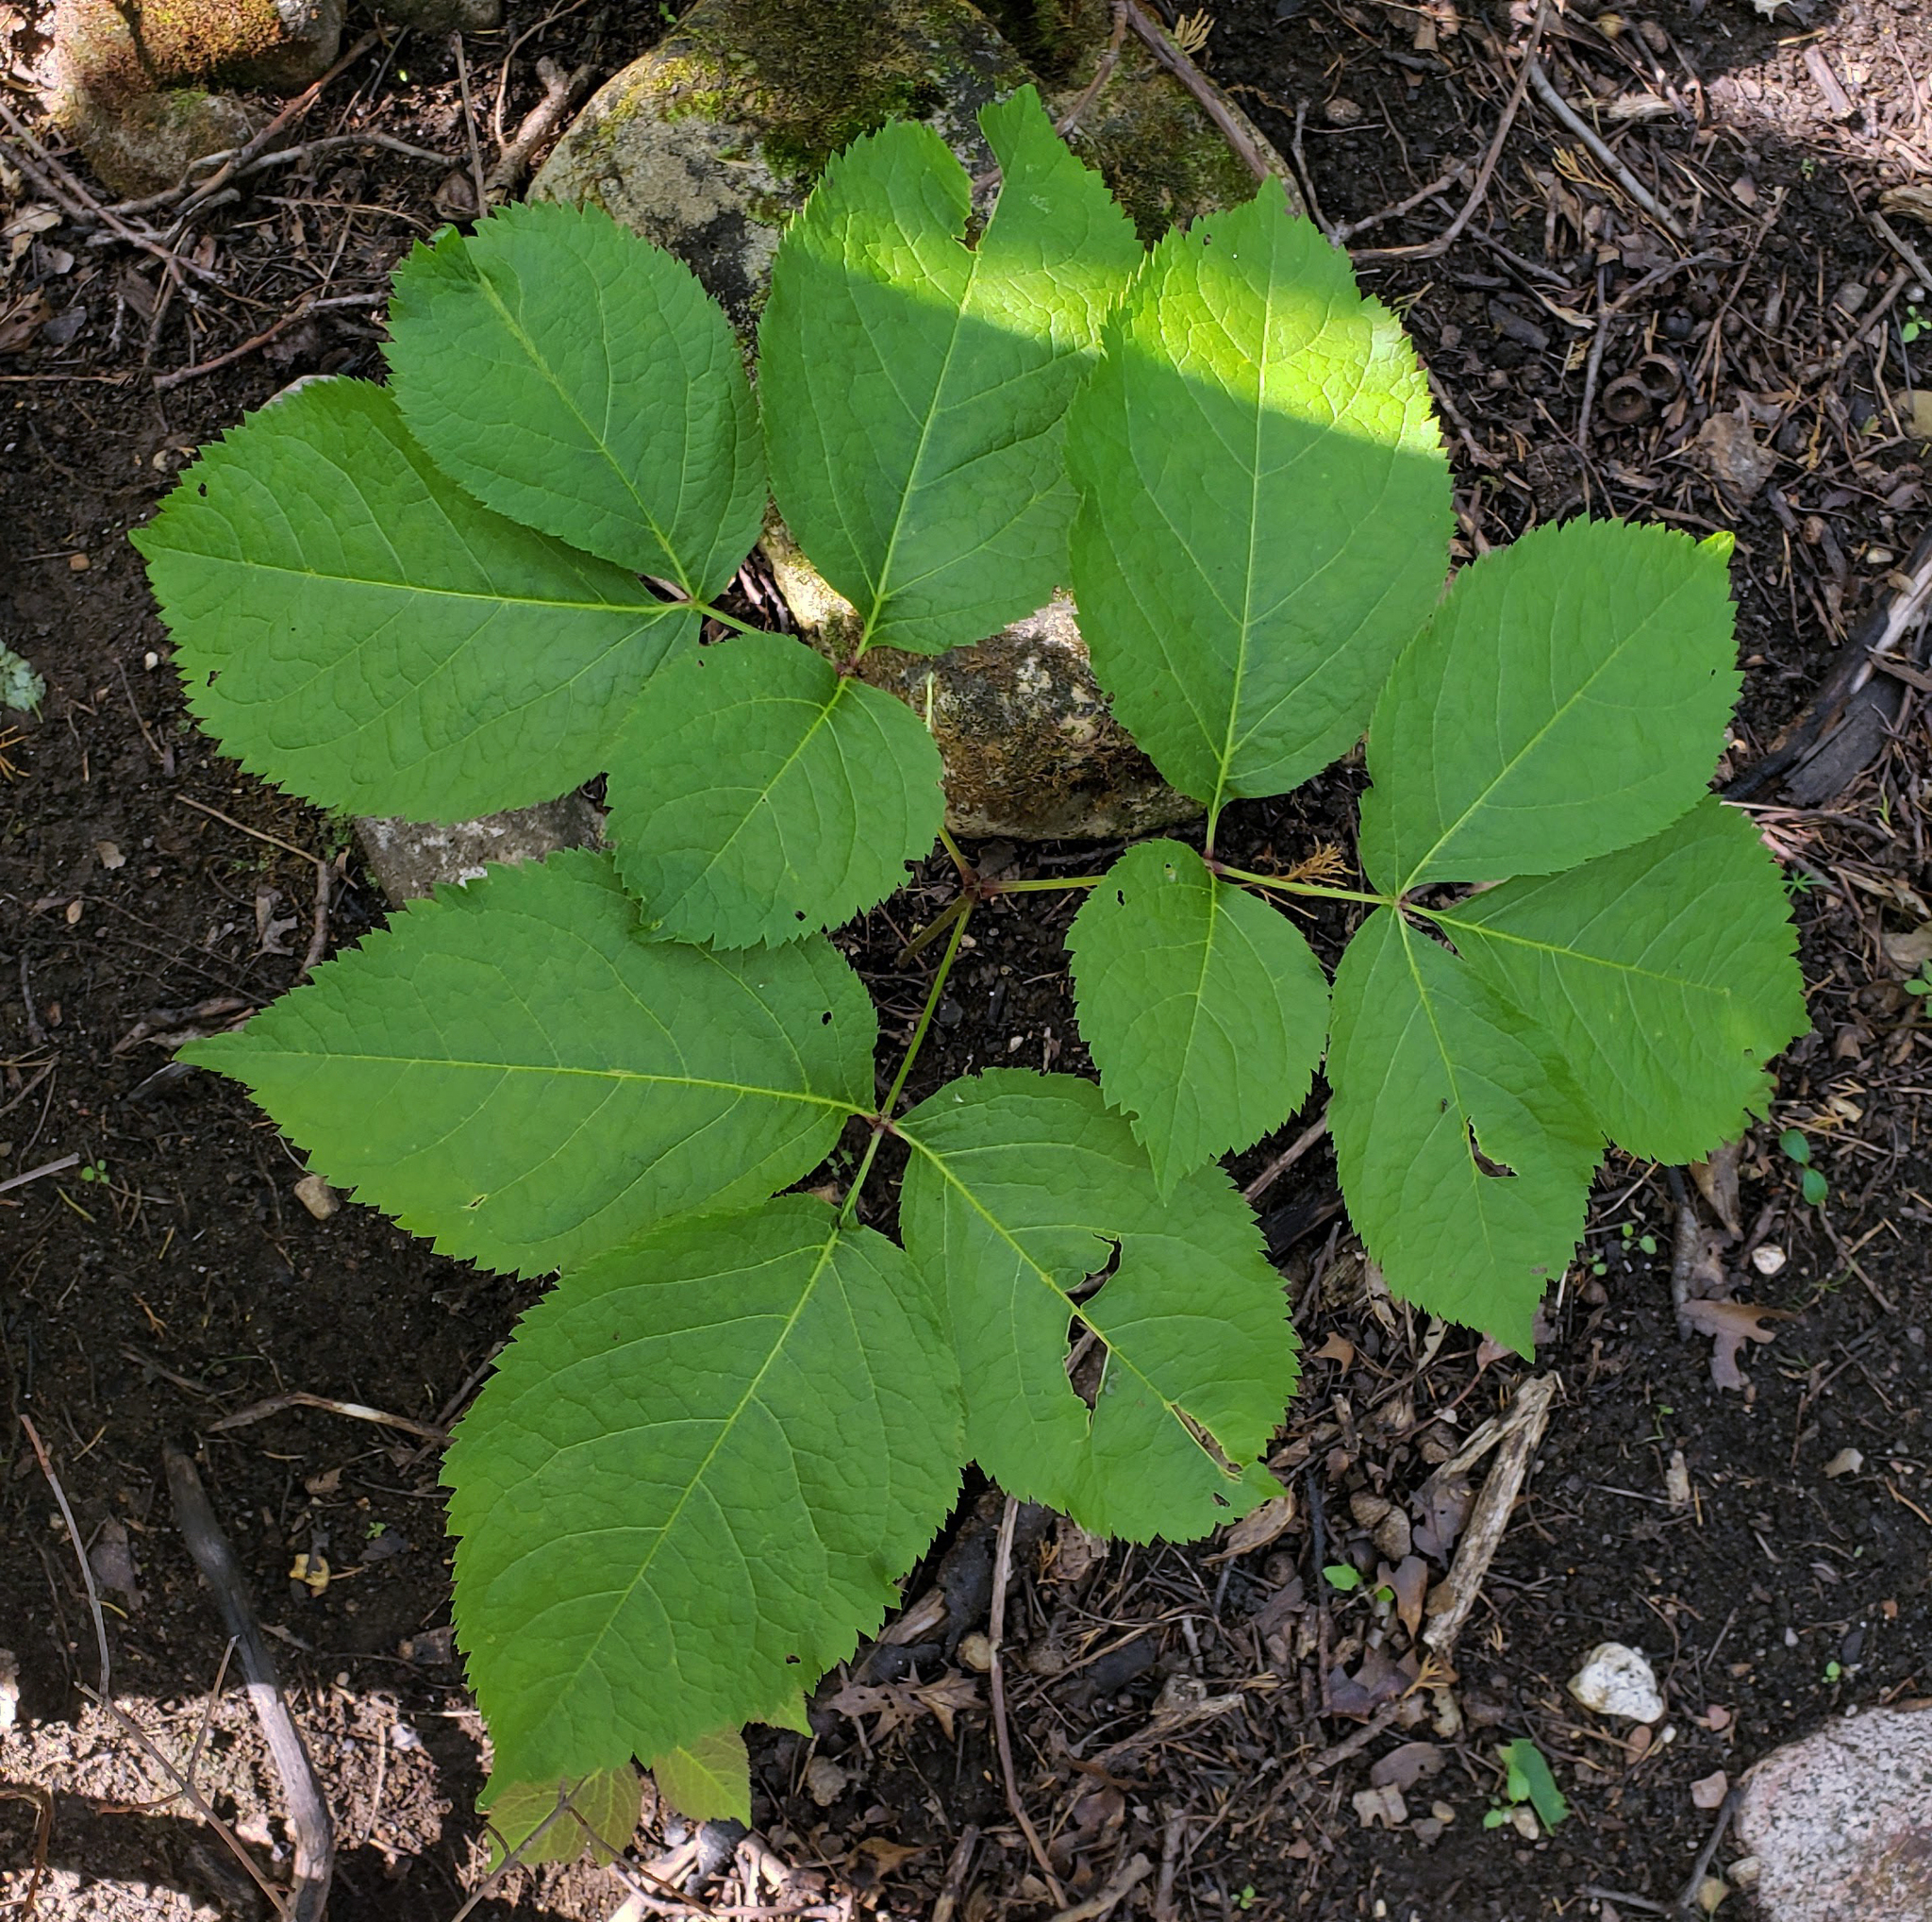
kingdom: Plantae
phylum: Tracheophyta
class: Magnoliopsida
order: Apiales
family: Araliaceae
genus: Aralia
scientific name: Aralia nudicaulis
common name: Wild sarsaparilla
